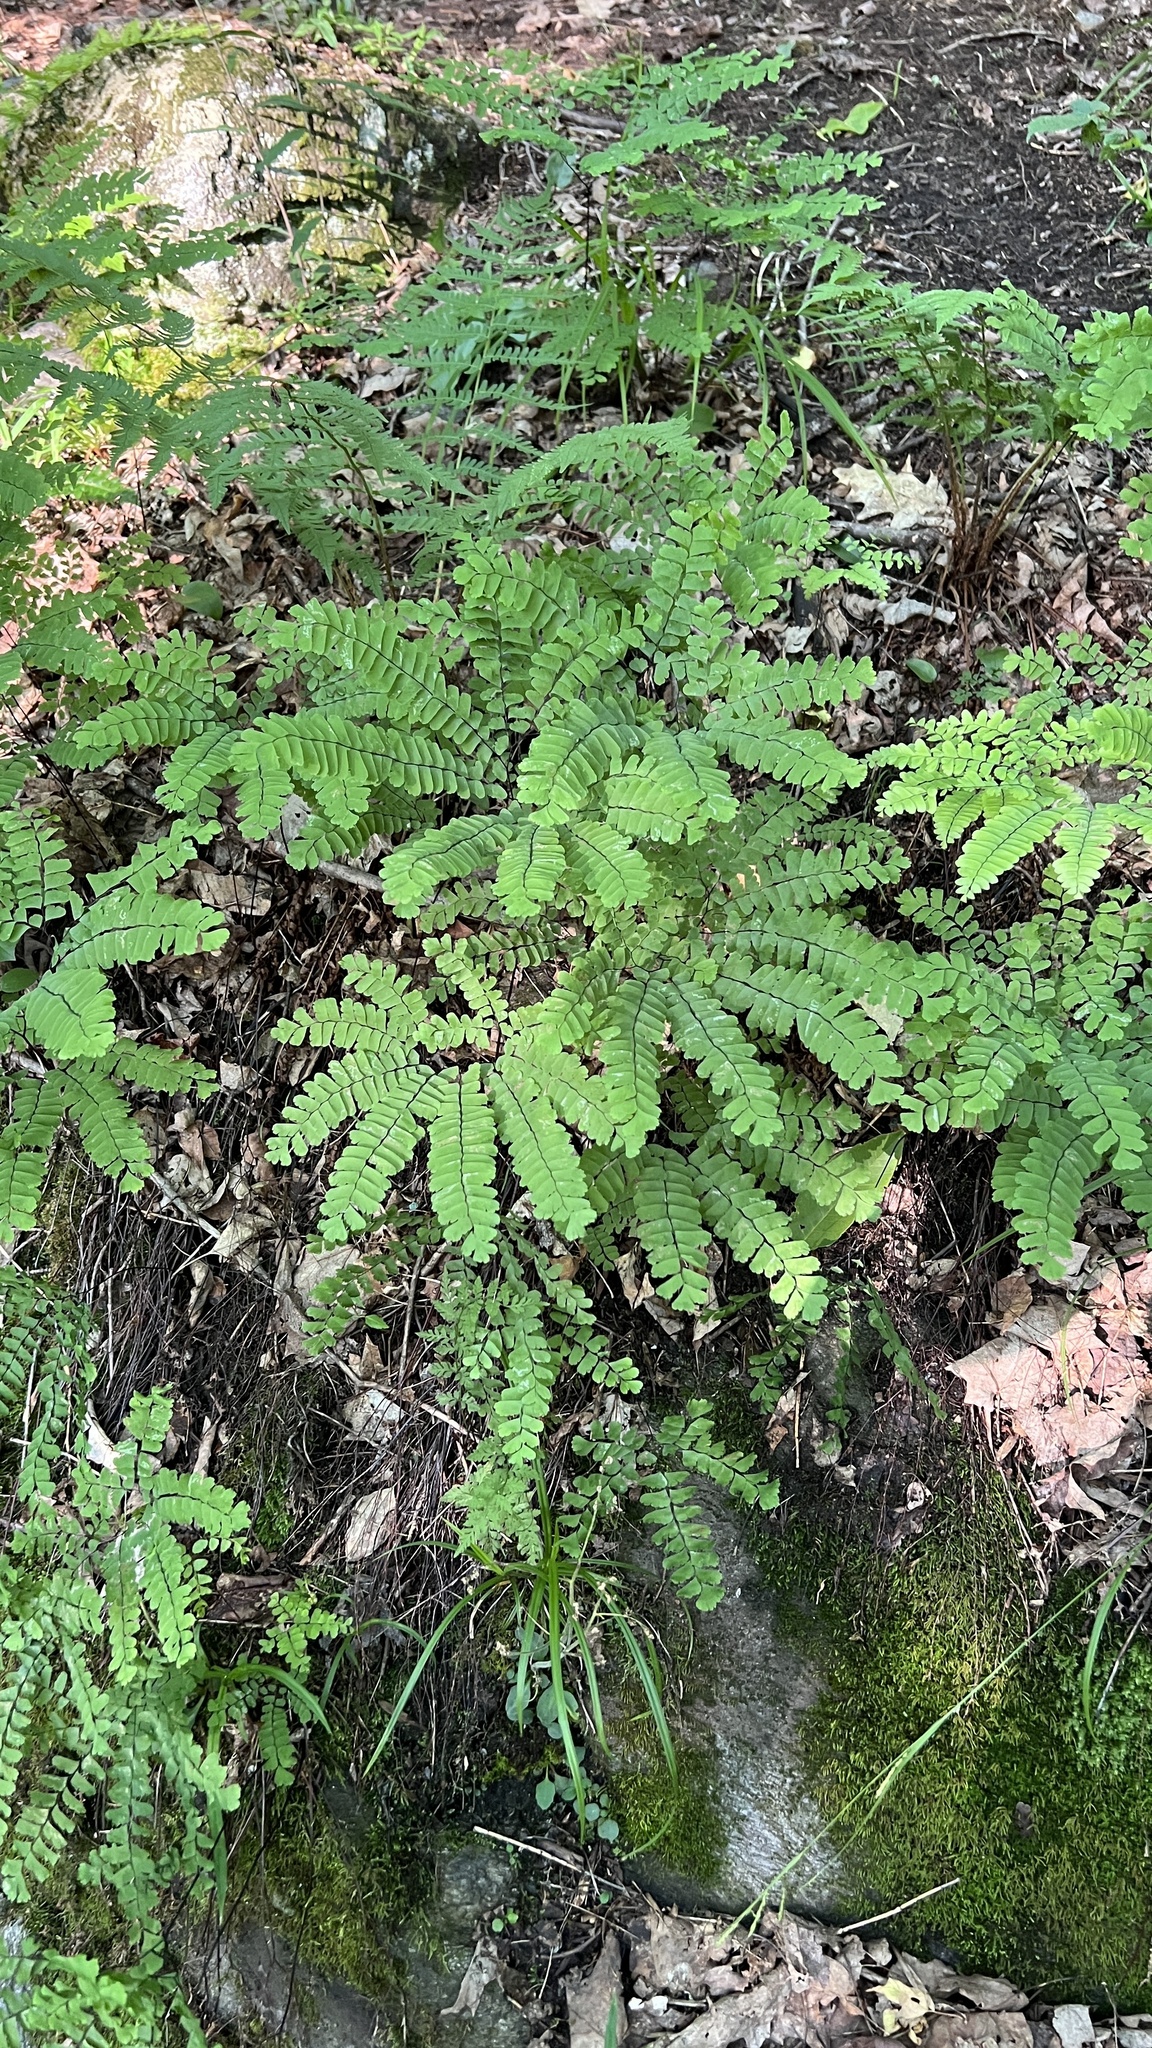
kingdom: Plantae
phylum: Tracheophyta
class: Polypodiopsida
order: Polypodiales
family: Pteridaceae
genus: Adiantum
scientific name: Adiantum pedatum
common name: Five-finger fern
